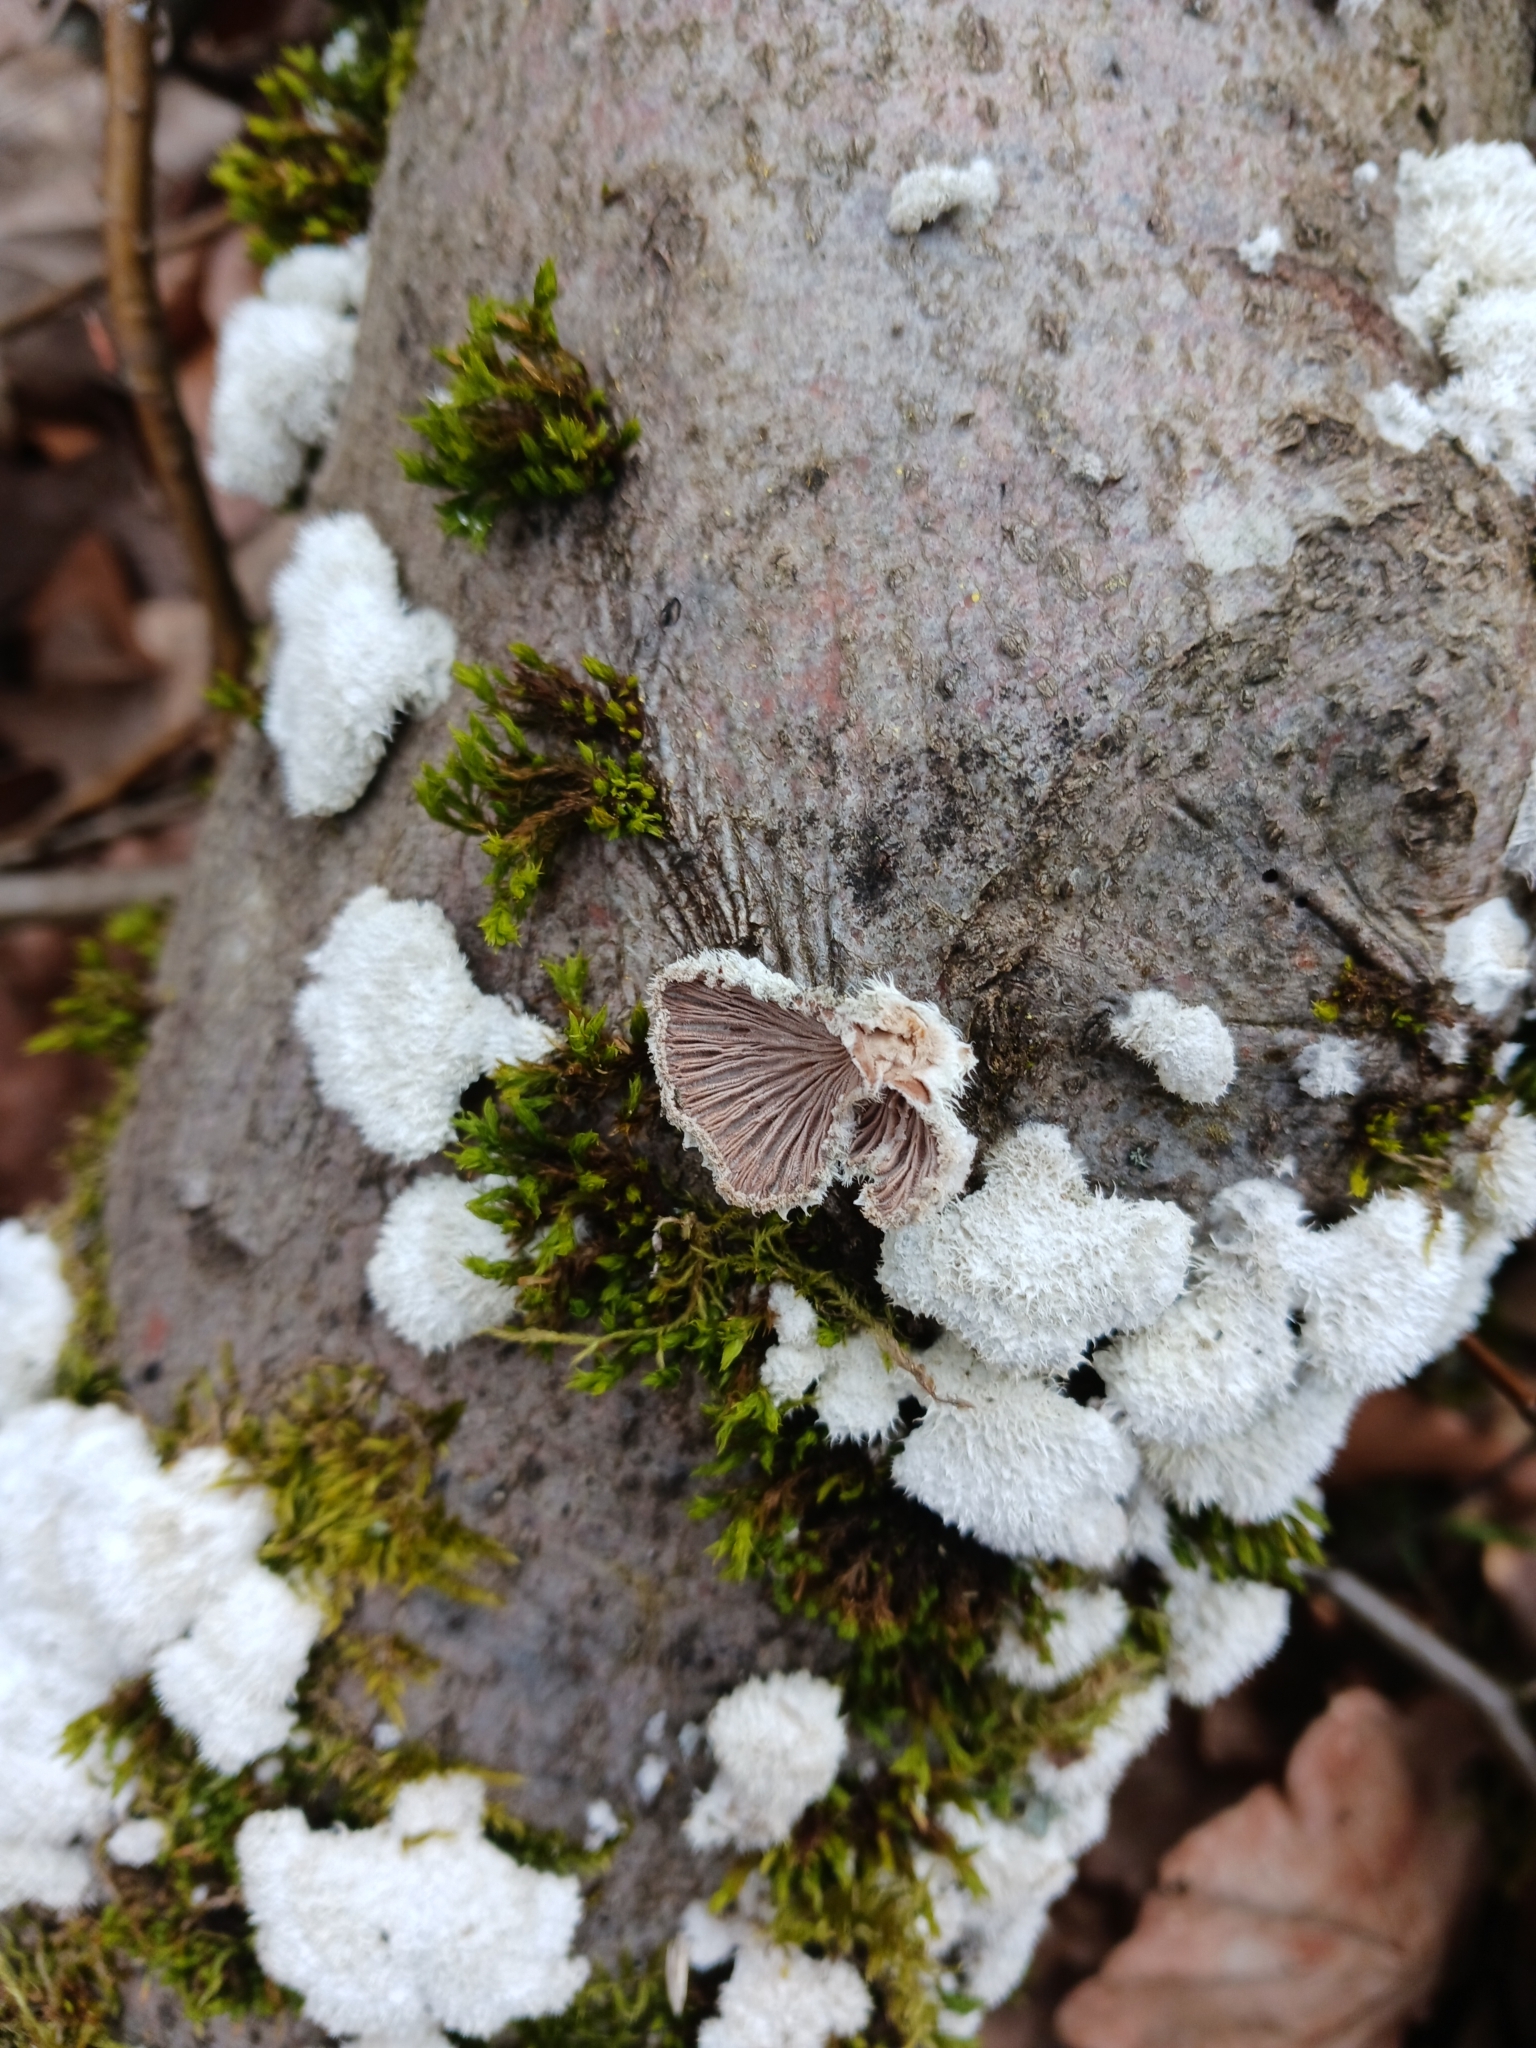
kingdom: Fungi
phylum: Basidiomycota
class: Agaricomycetes
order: Agaricales
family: Schizophyllaceae
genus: Schizophyllum
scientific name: Schizophyllum commune
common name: Common porecrust
